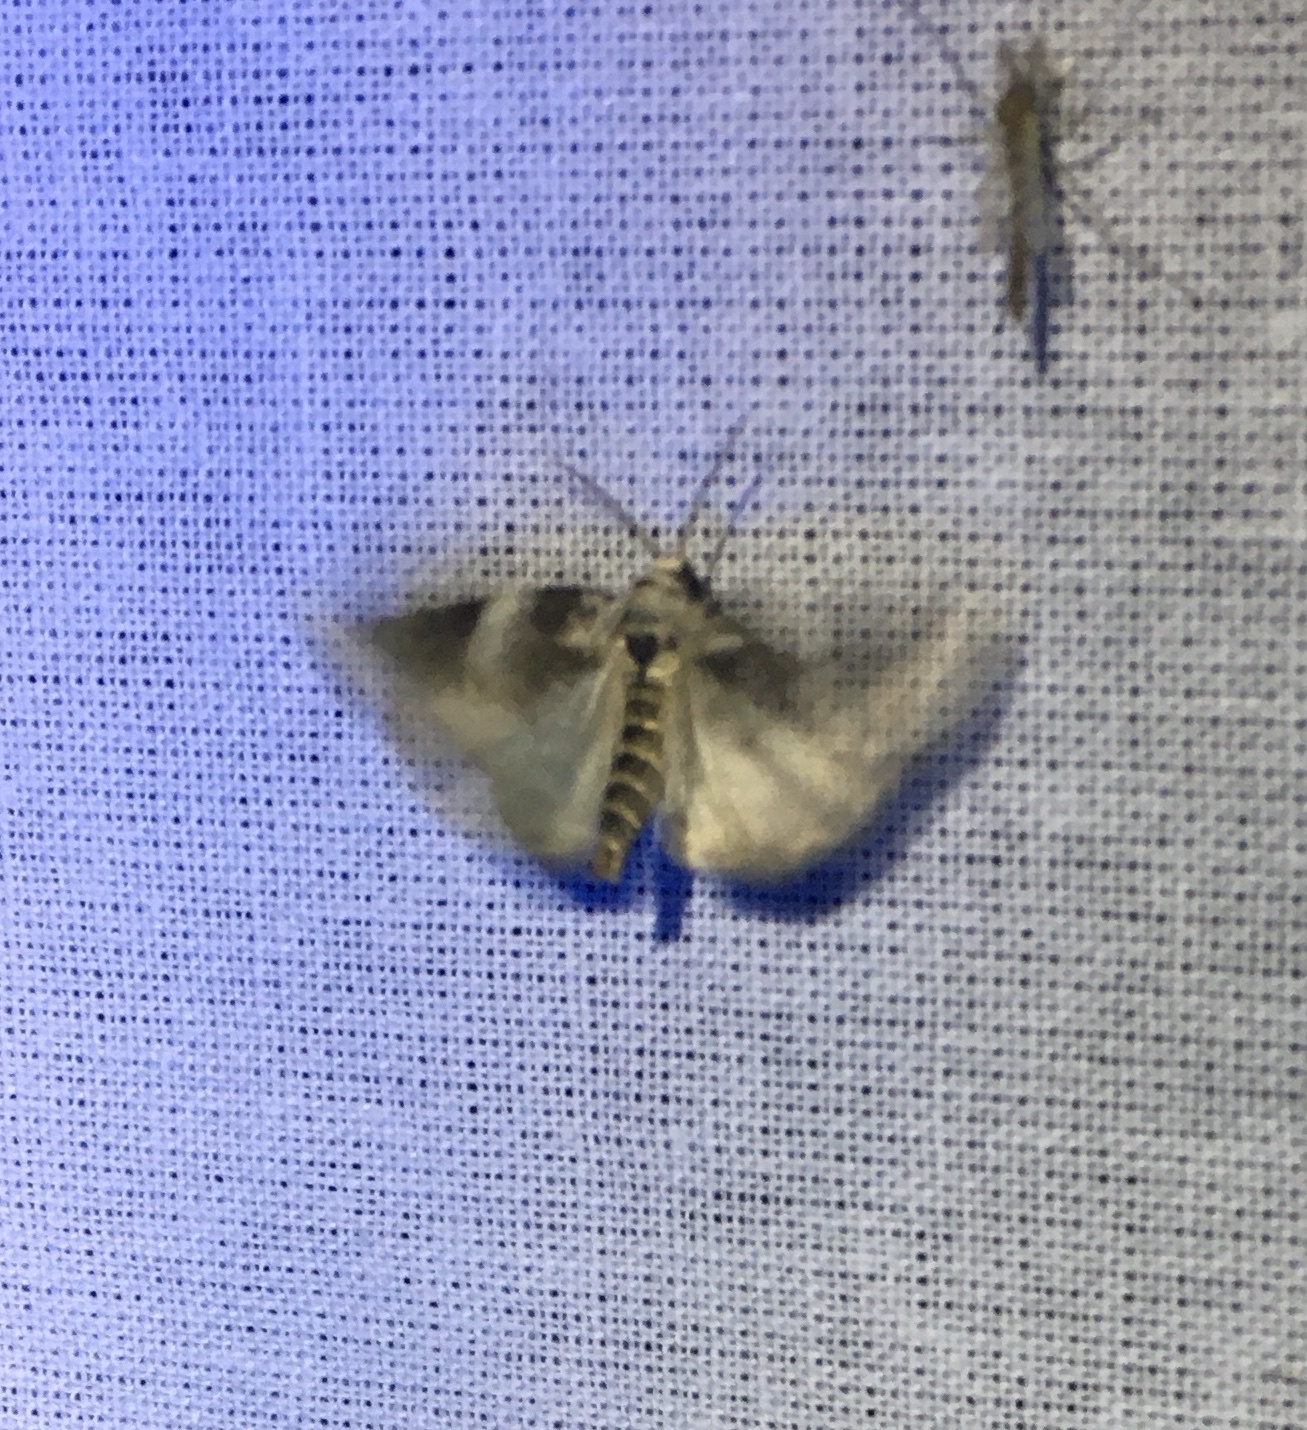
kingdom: Animalia
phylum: Arthropoda
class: Insecta
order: Lepidoptera
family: Noctuidae
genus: Pseudeustrotia
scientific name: Pseudeustrotia candidula
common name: Shining marbled
